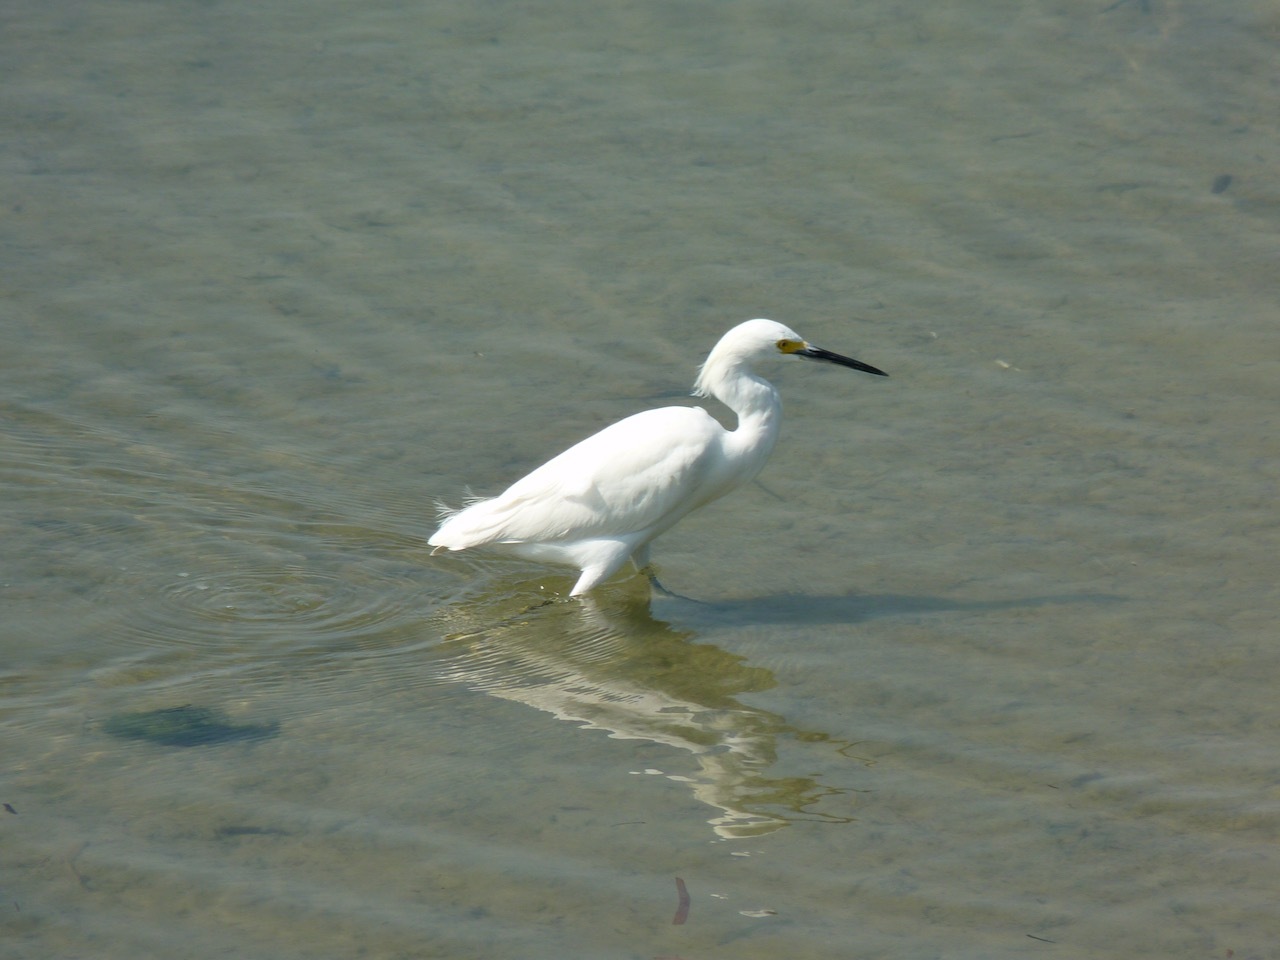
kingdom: Animalia
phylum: Chordata
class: Aves
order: Pelecaniformes
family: Ardeidae
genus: Egretta
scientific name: Egretta thula
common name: Snowy egret
